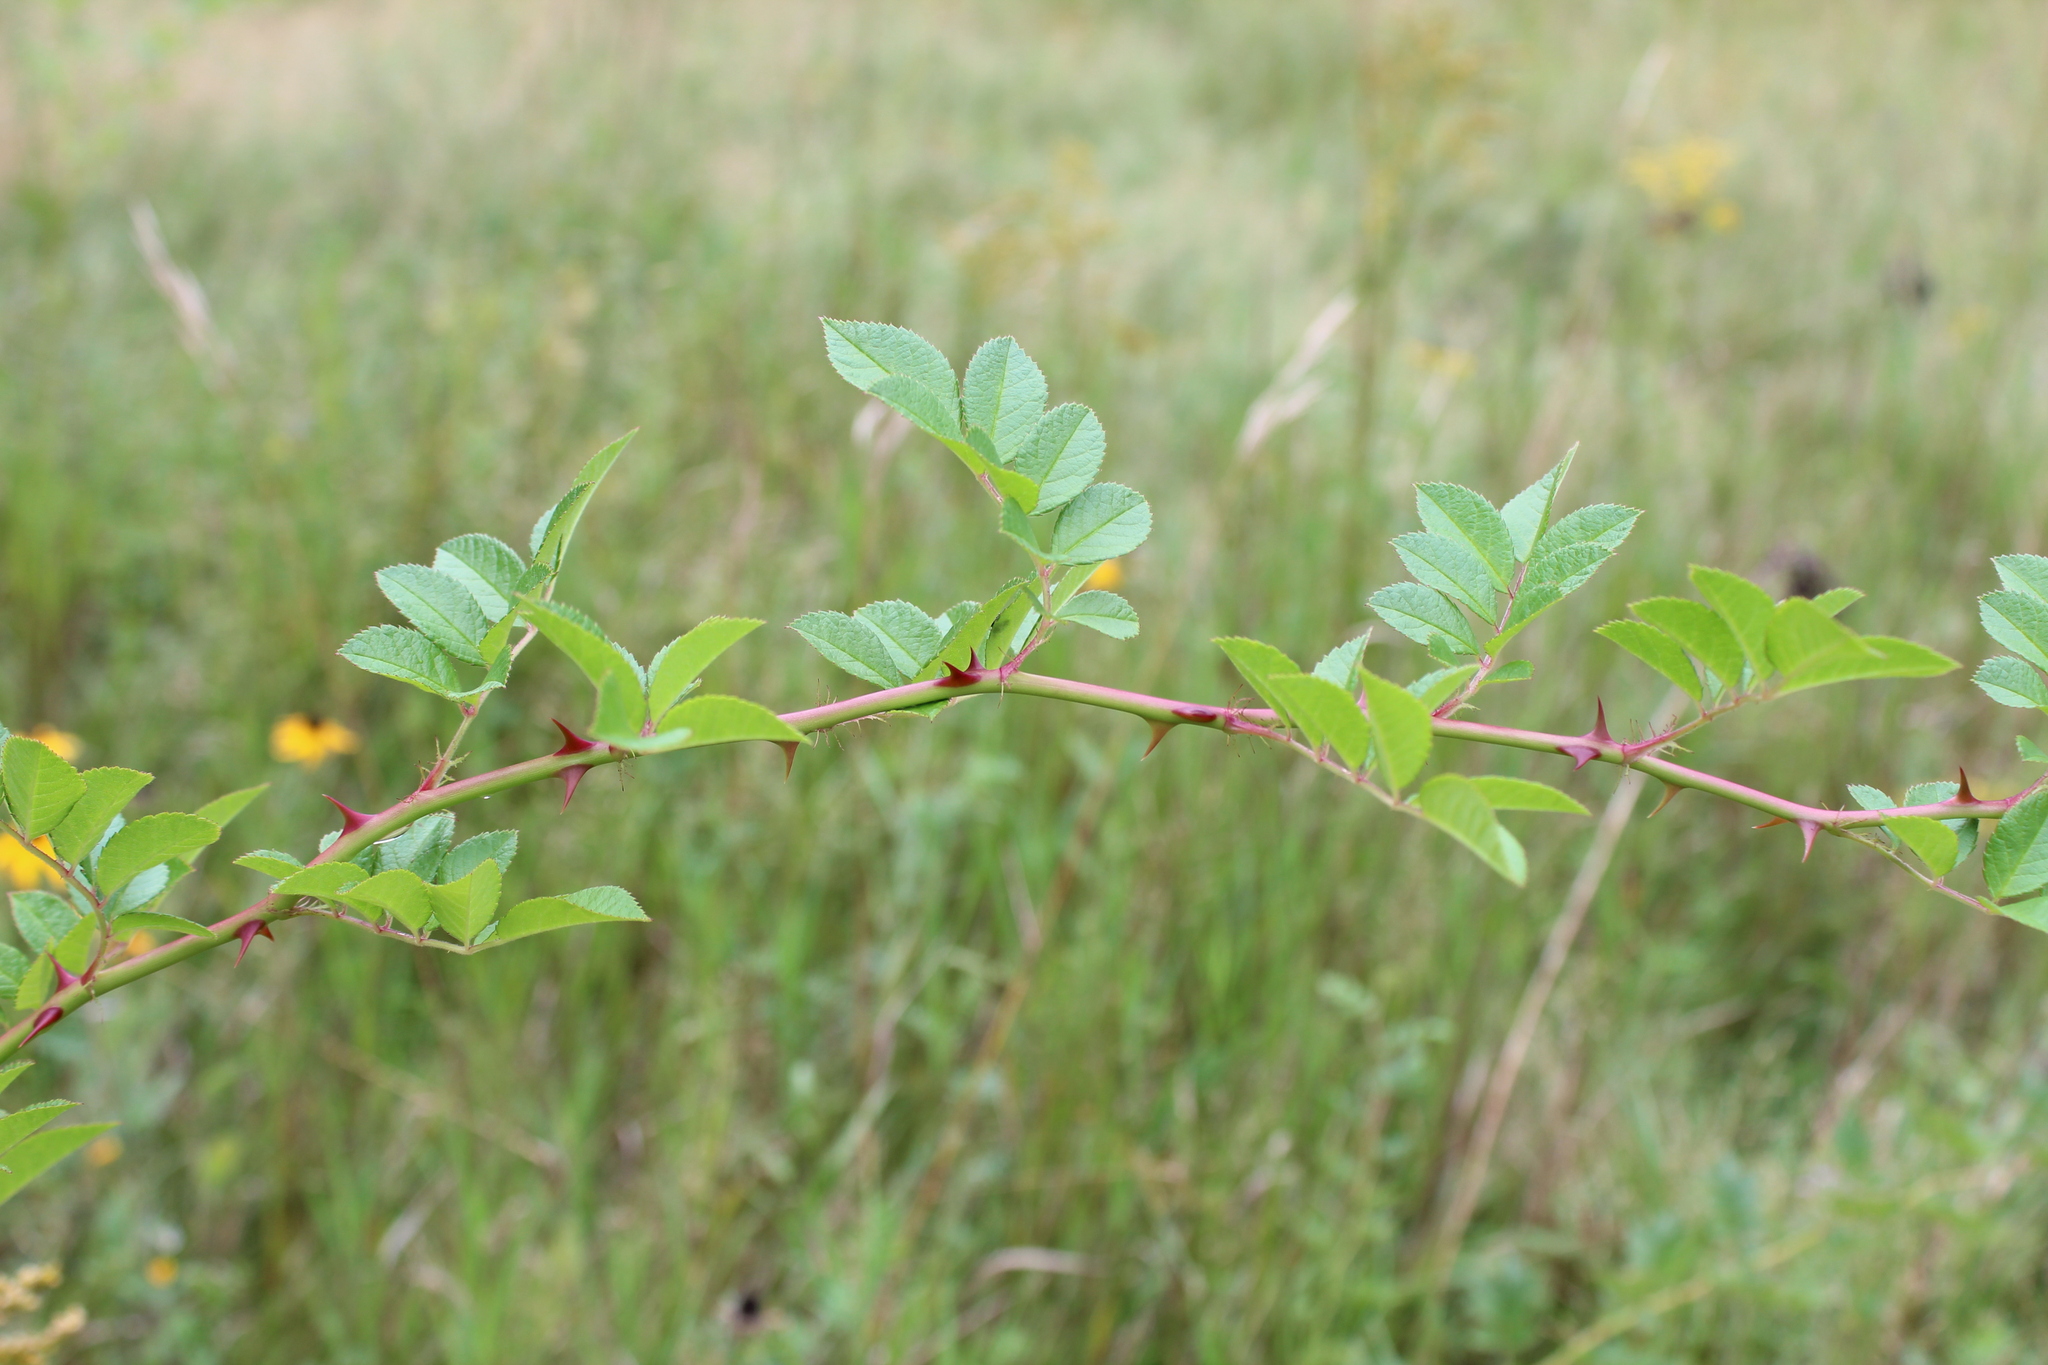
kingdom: Plantae
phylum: Tracheophyta
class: Magnoliopsida
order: Rosales
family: Rosaceae
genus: Rosa
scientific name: Rosa multiflora
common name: Multiflora rose
